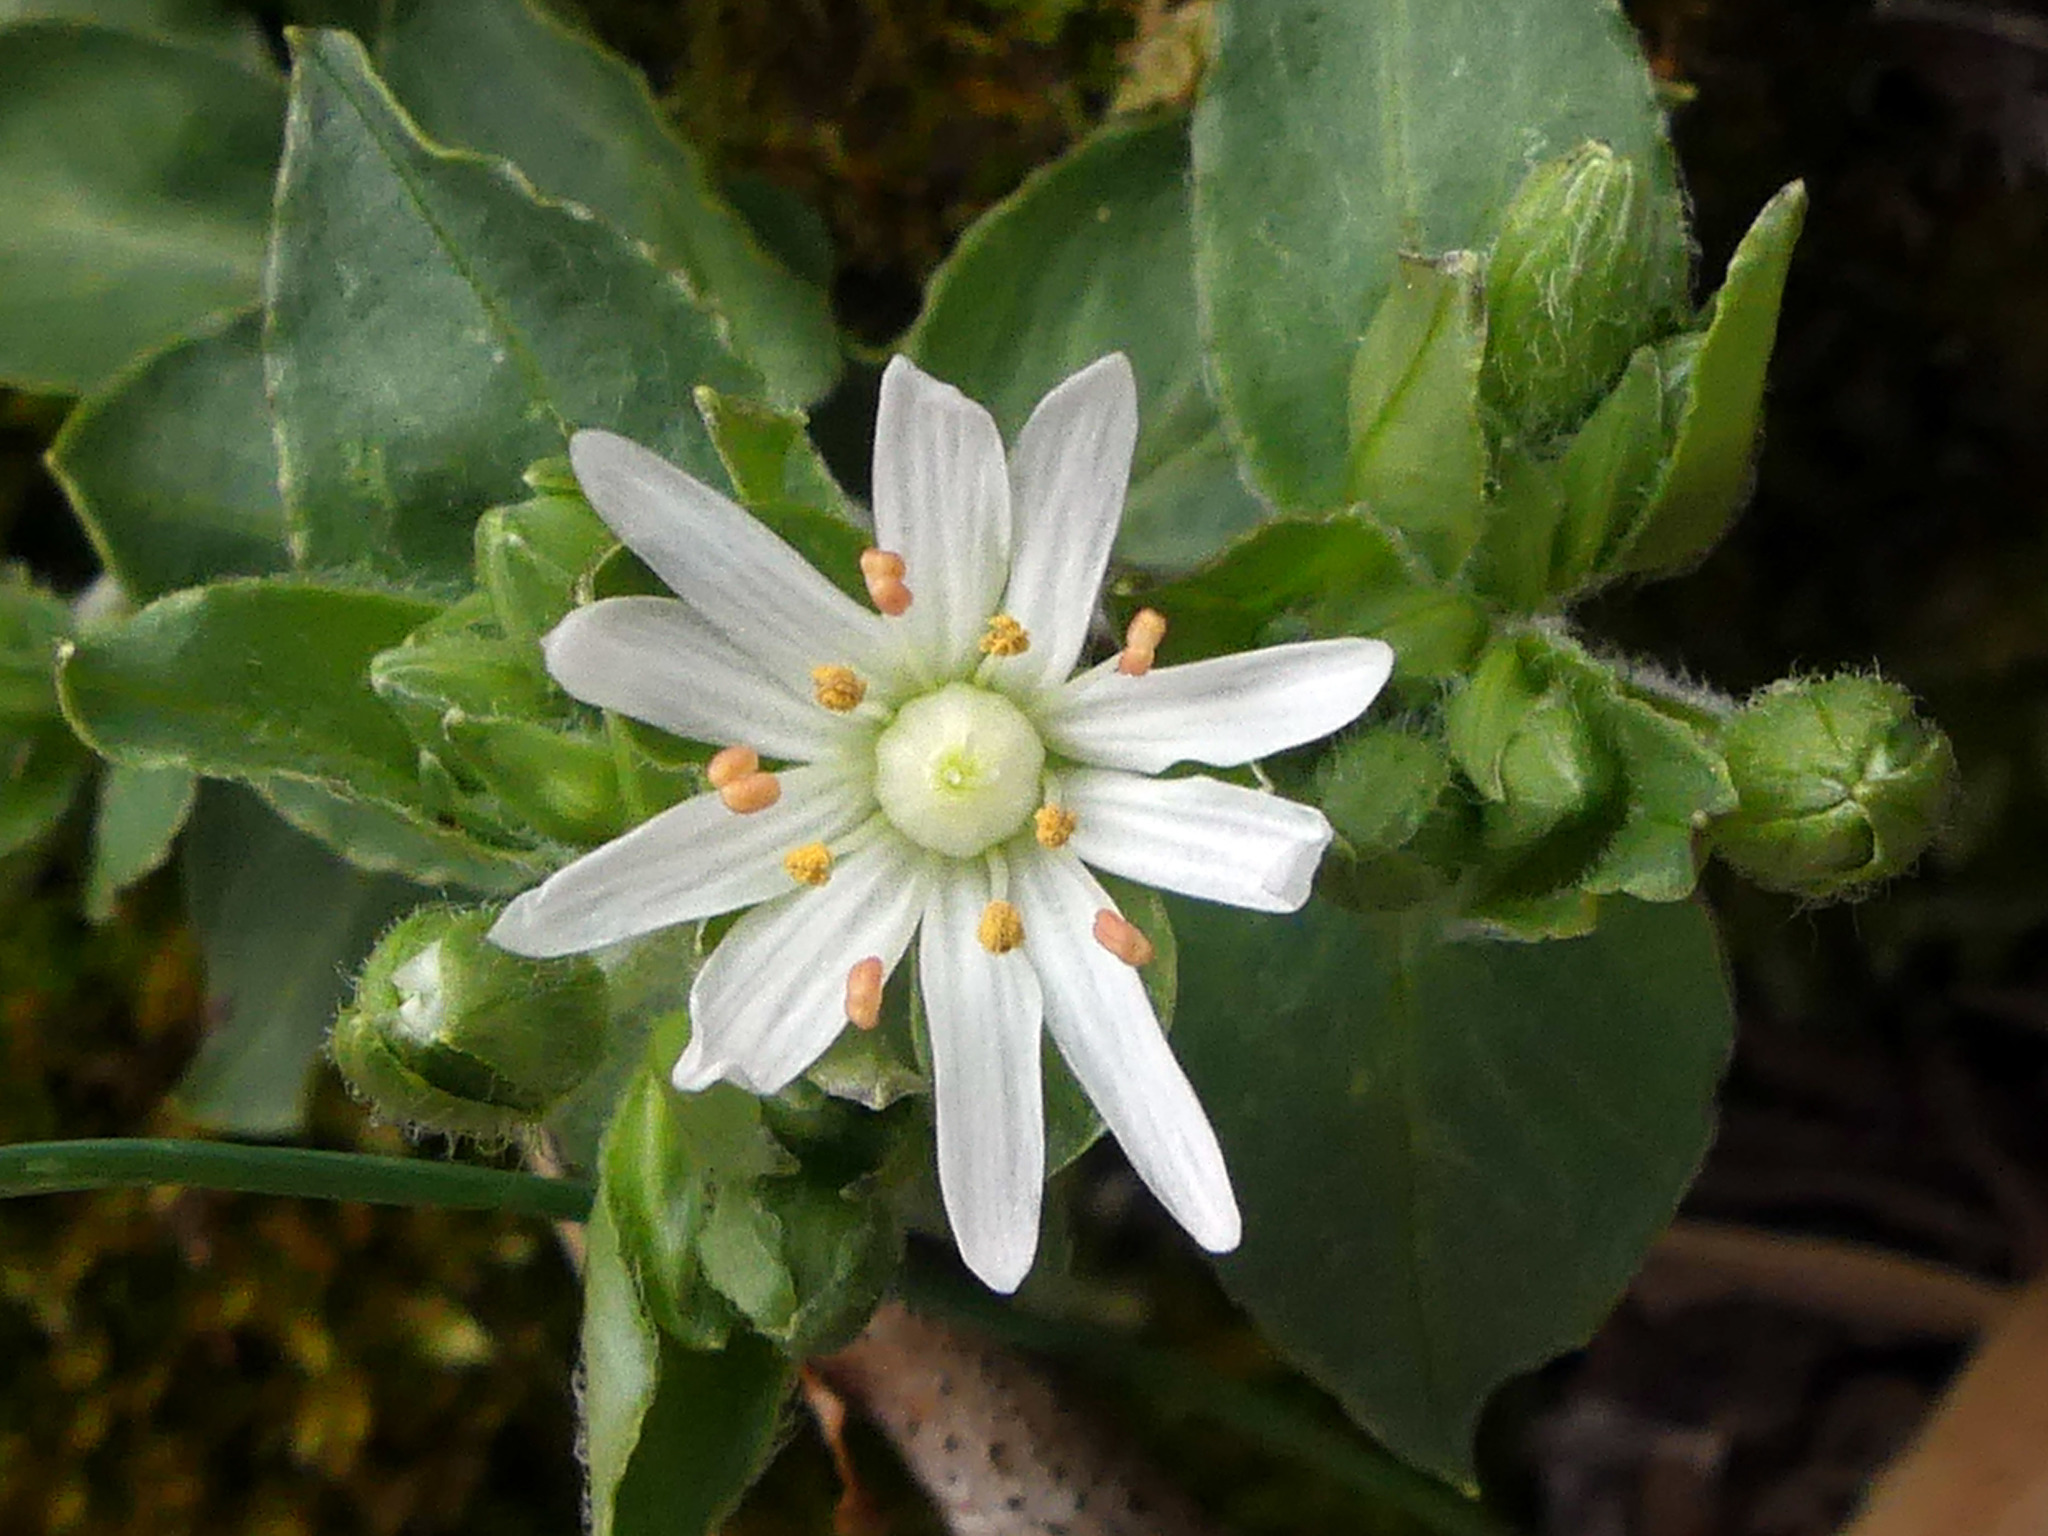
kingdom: Plantae
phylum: Tracheophyta
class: Magnoliopsida
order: Caryophyllales
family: Caryophyllaceae
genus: Stellaria
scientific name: Stellaria pubera
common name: Star chickweed
